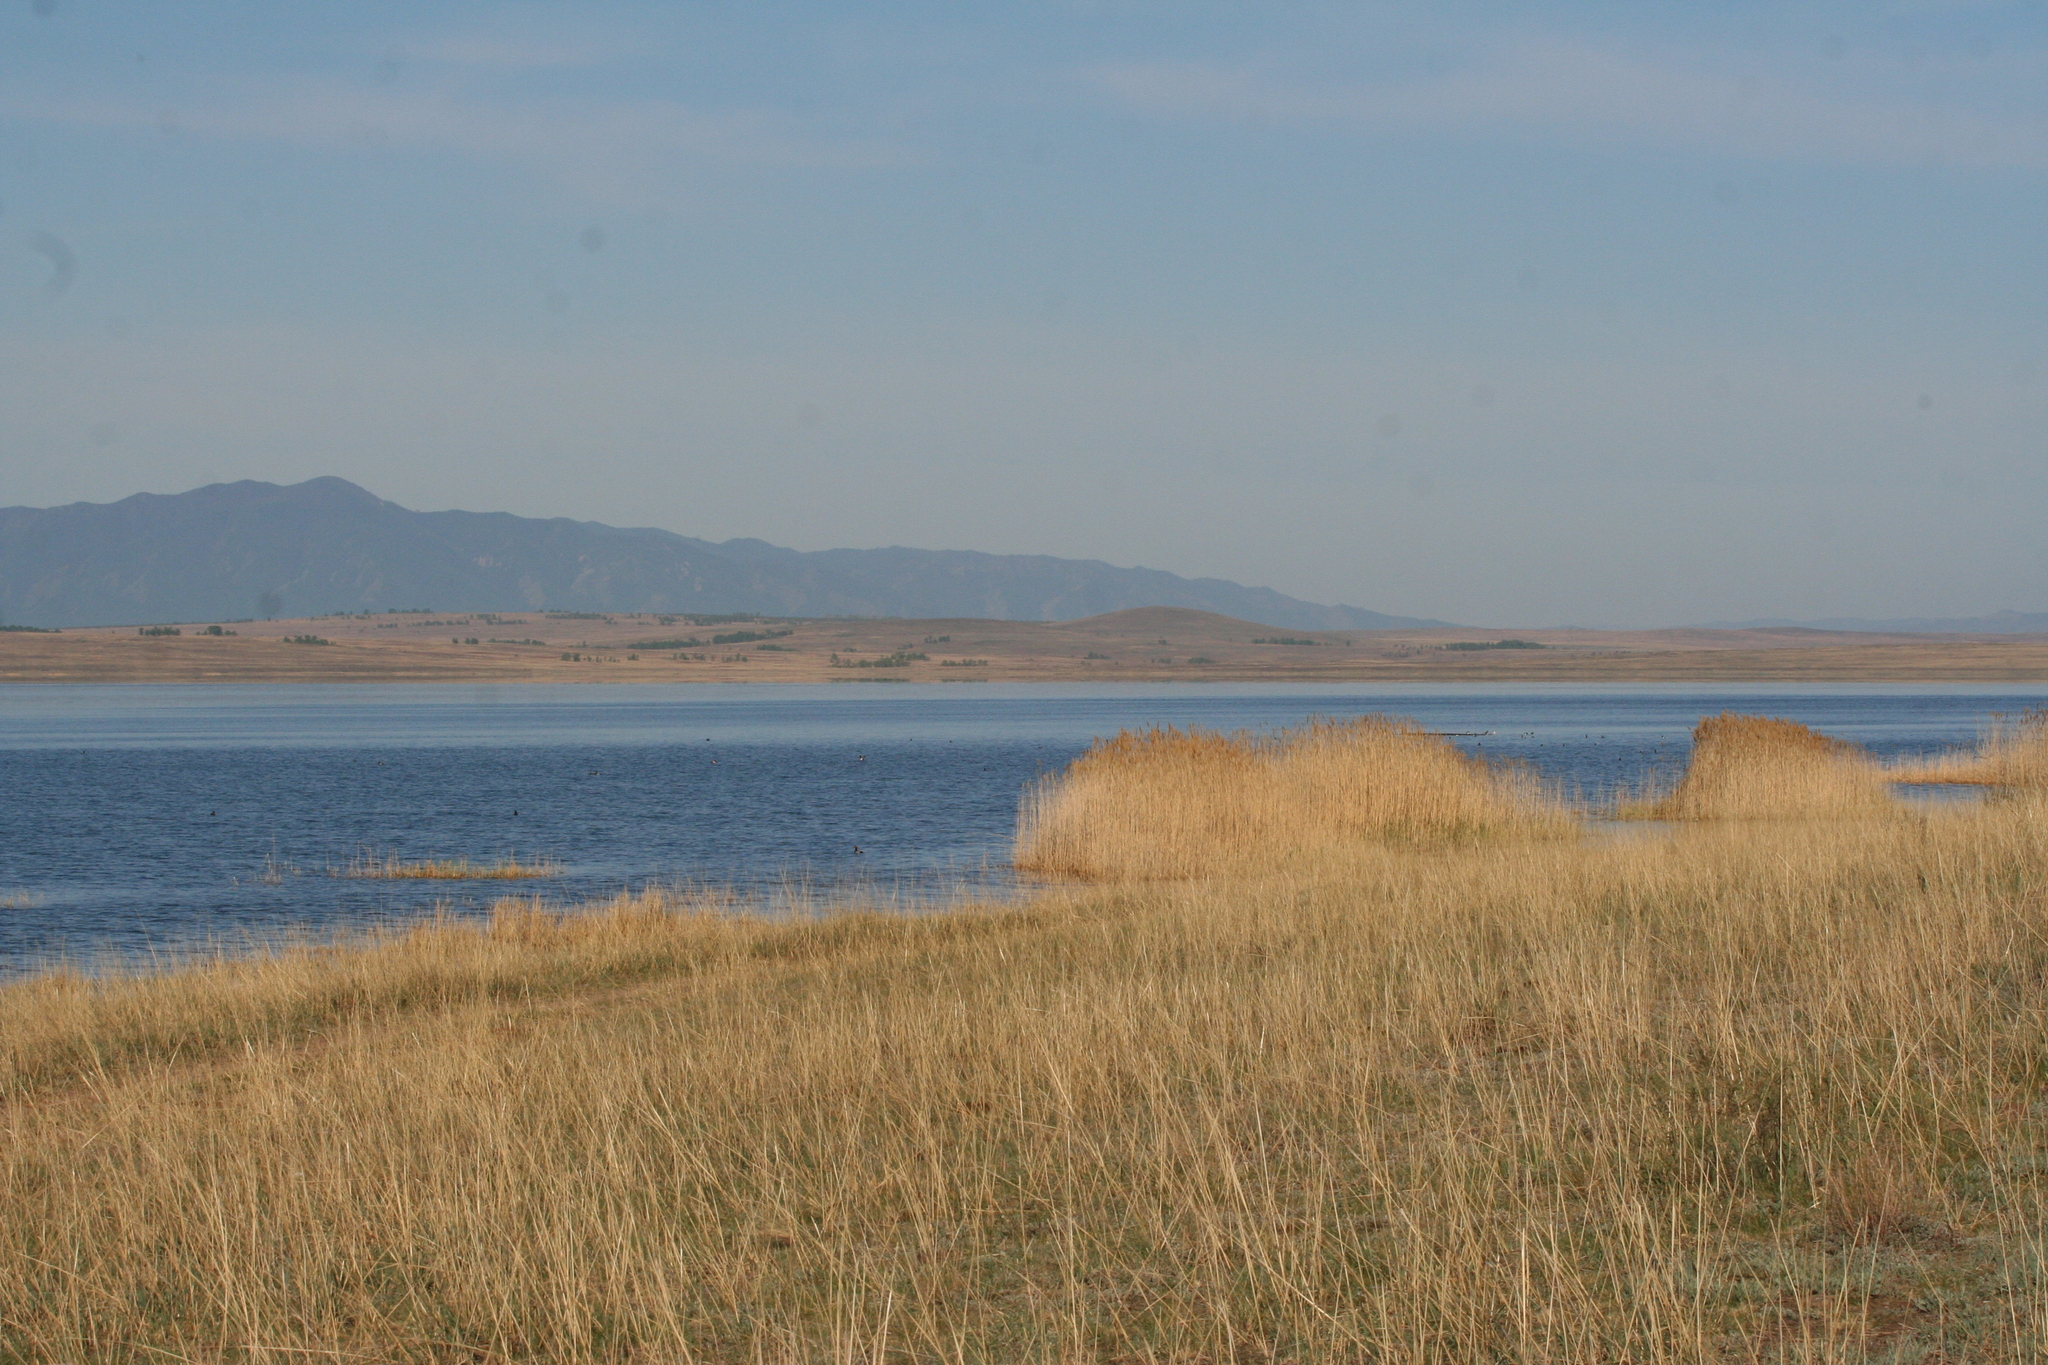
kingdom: Plantae
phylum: Tracheophyta
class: Liliopsida
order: Poales
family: Poaceae
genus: Phragmites
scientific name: Phragmites australis
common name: Common reed
